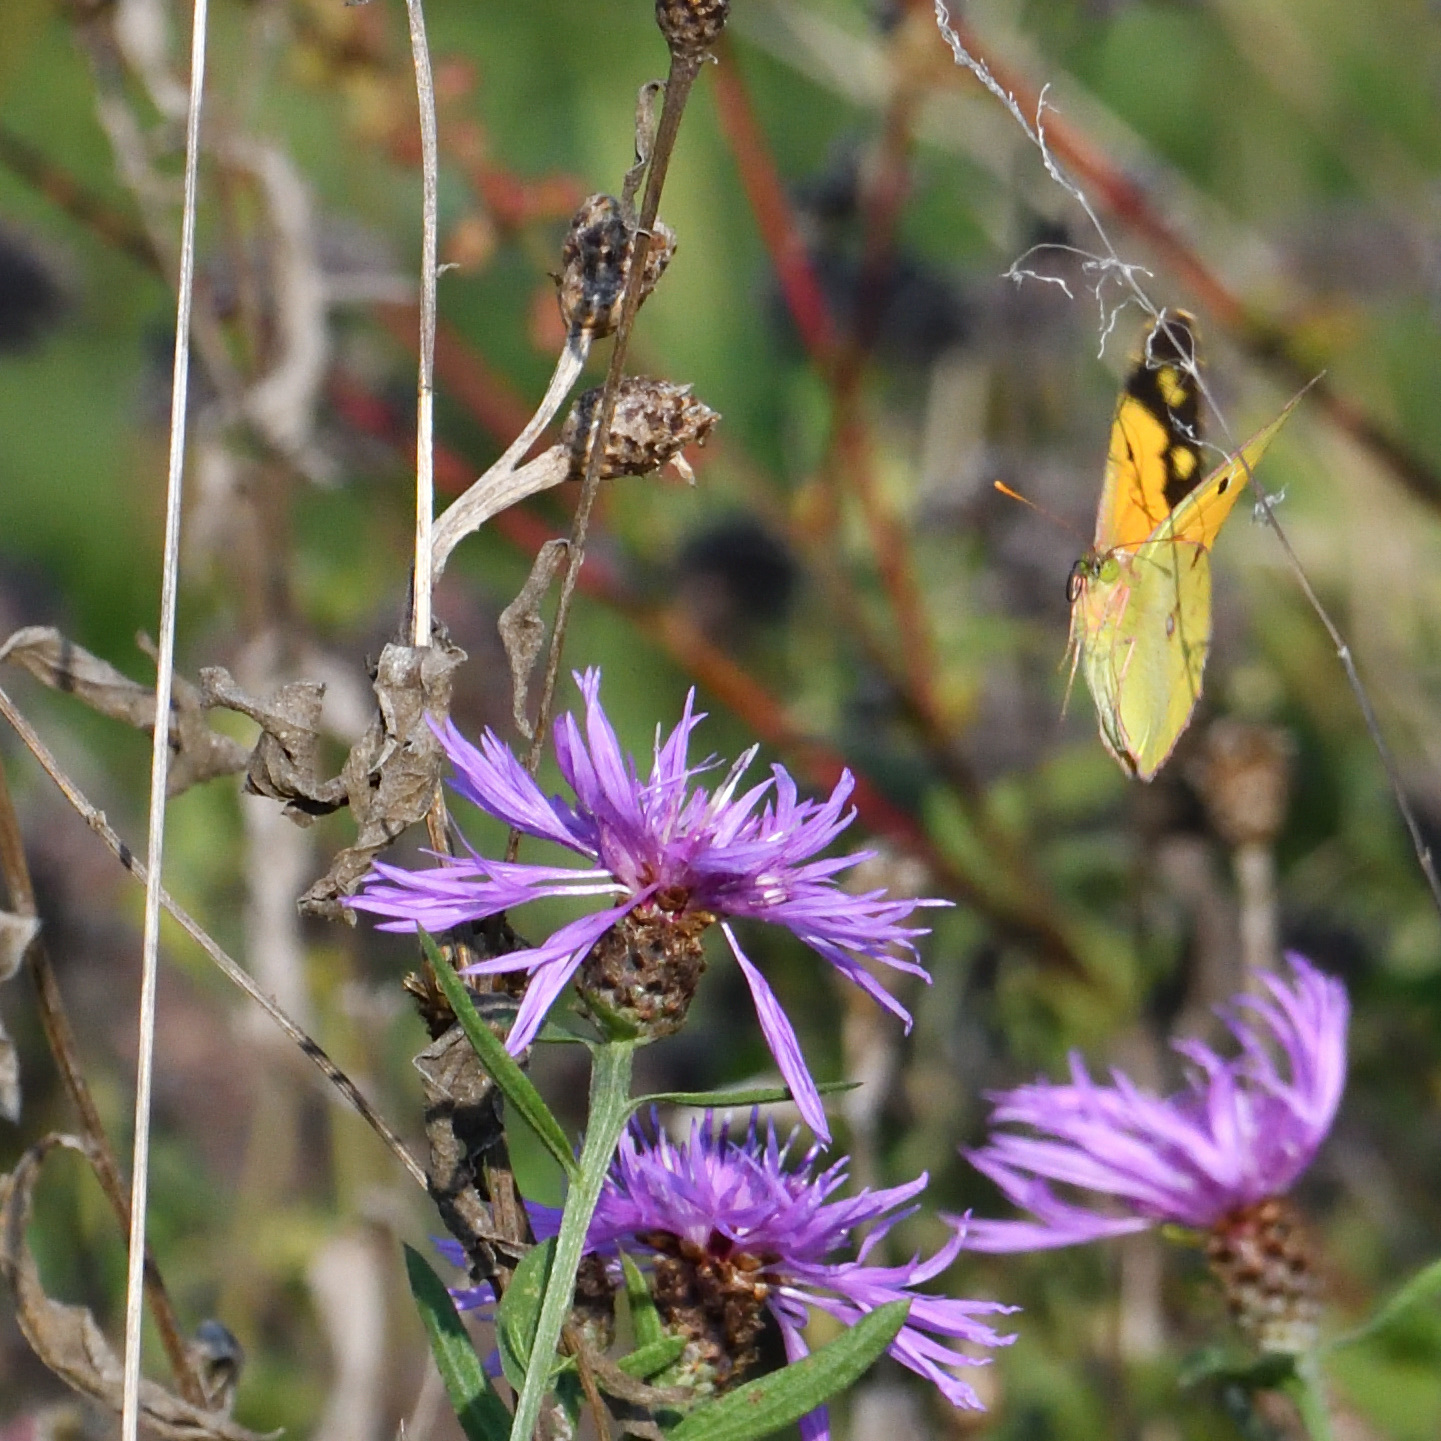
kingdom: Animalia
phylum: Arthropoda
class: Insecta
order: Lepidoptera
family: Pieridae
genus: Colias
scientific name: Colias croceus
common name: Clouded yellow
